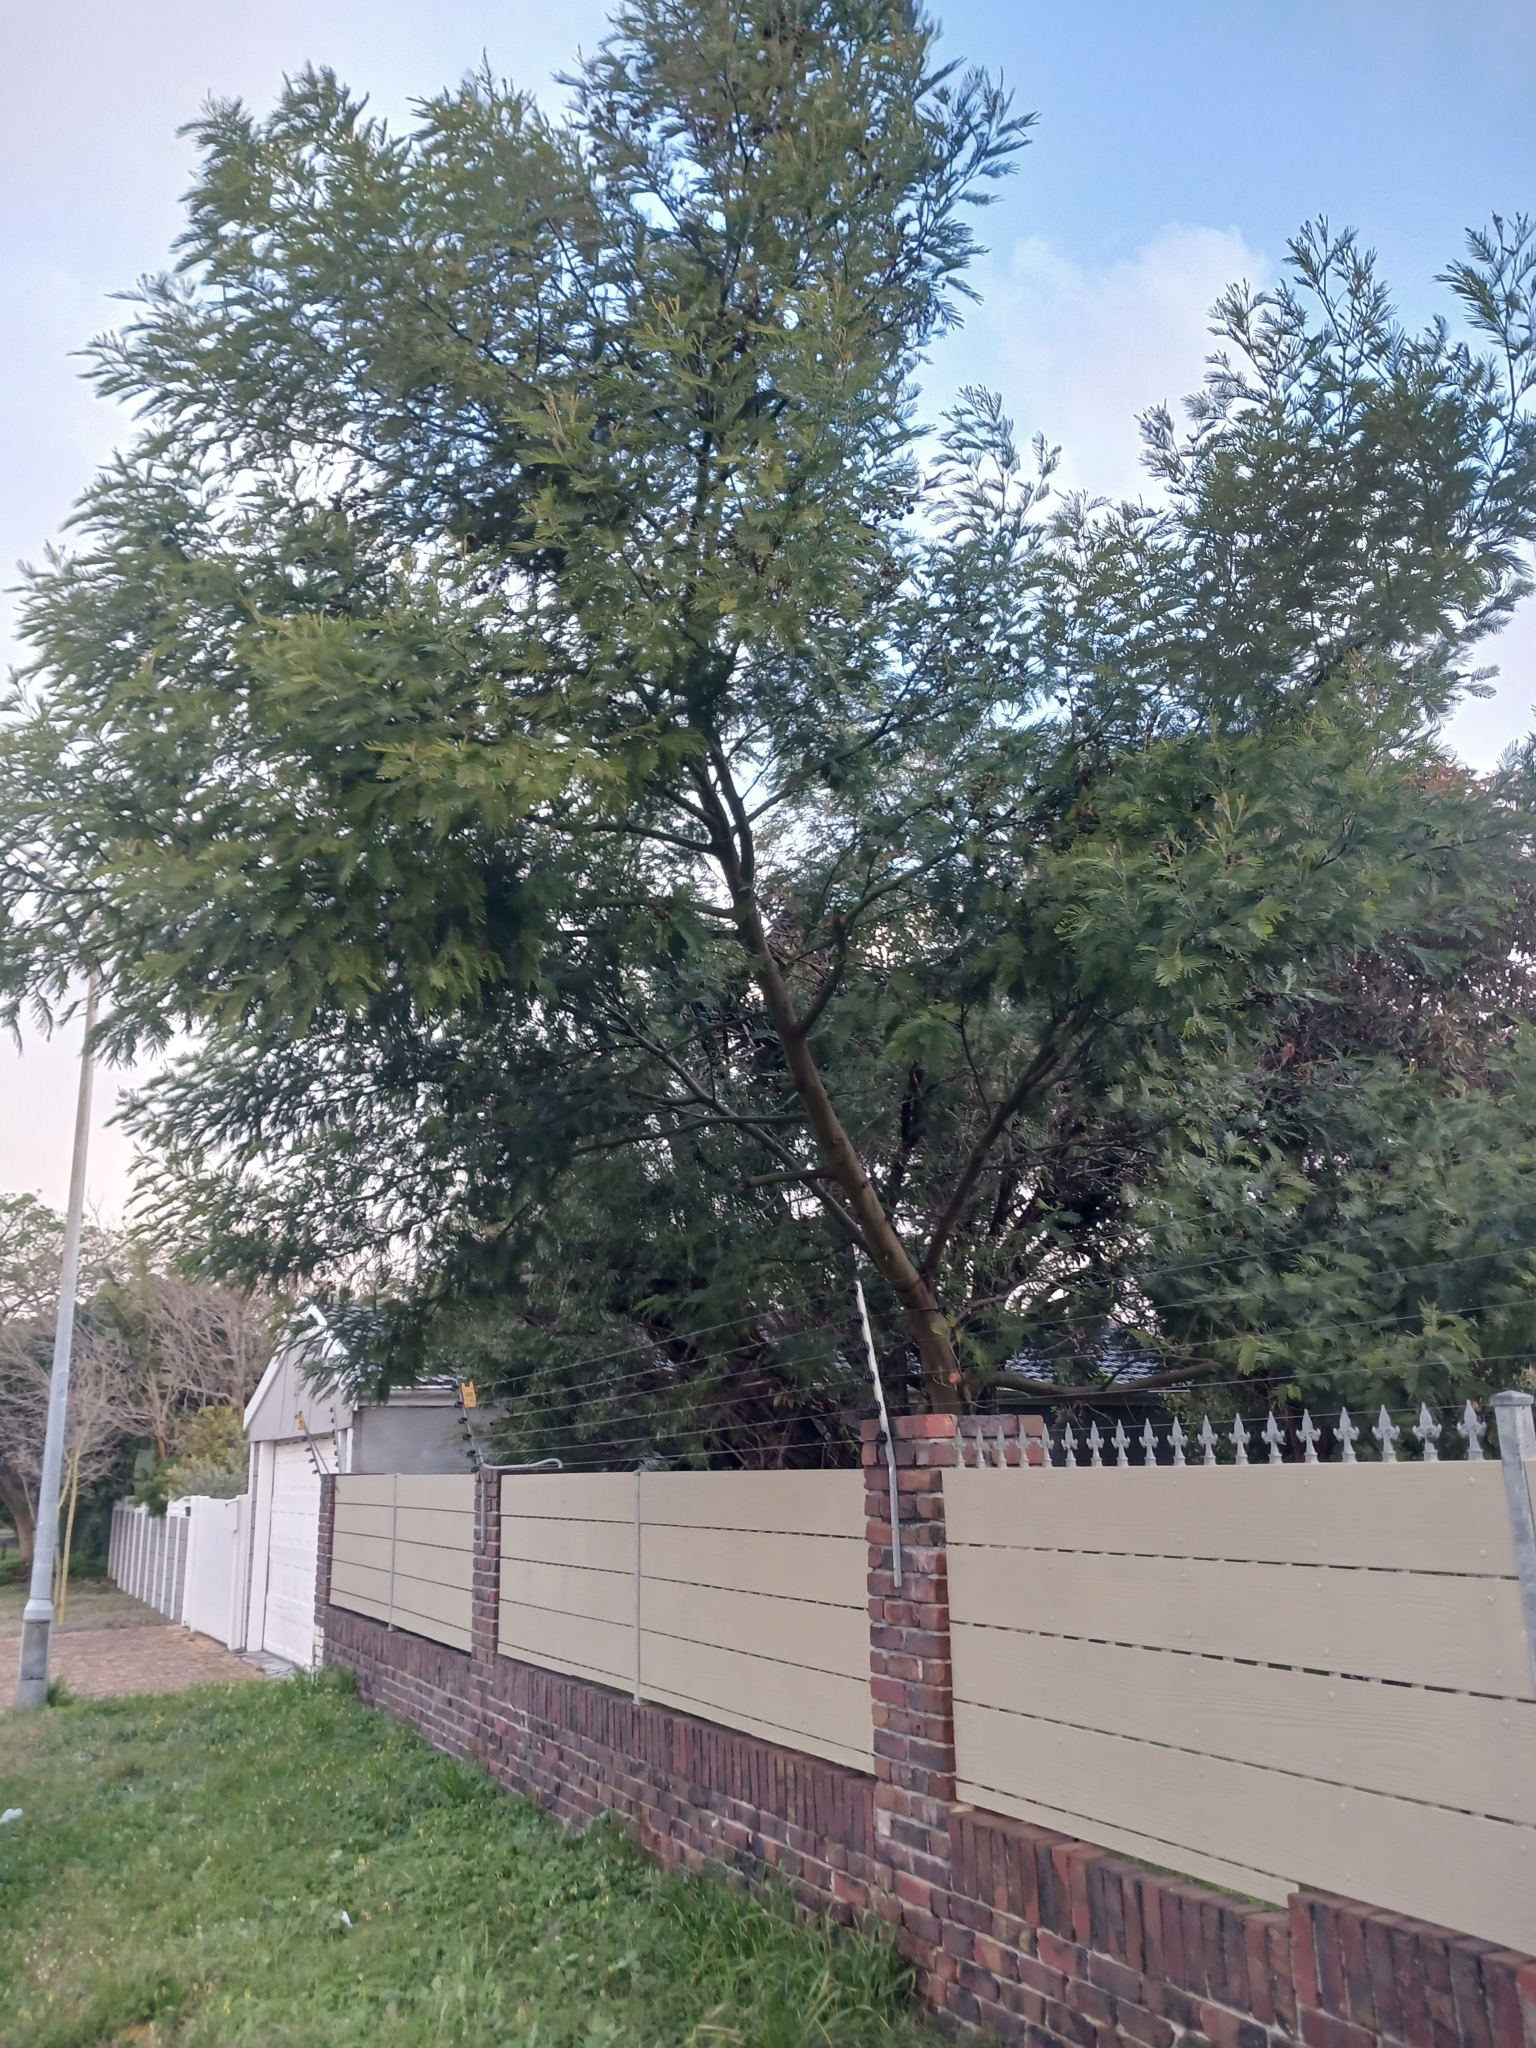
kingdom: Animalia
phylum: Arthropoda
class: Insecta
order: Diptera
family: Cecidomyiidae
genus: Dasineura
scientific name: Dasineura rubiformis
